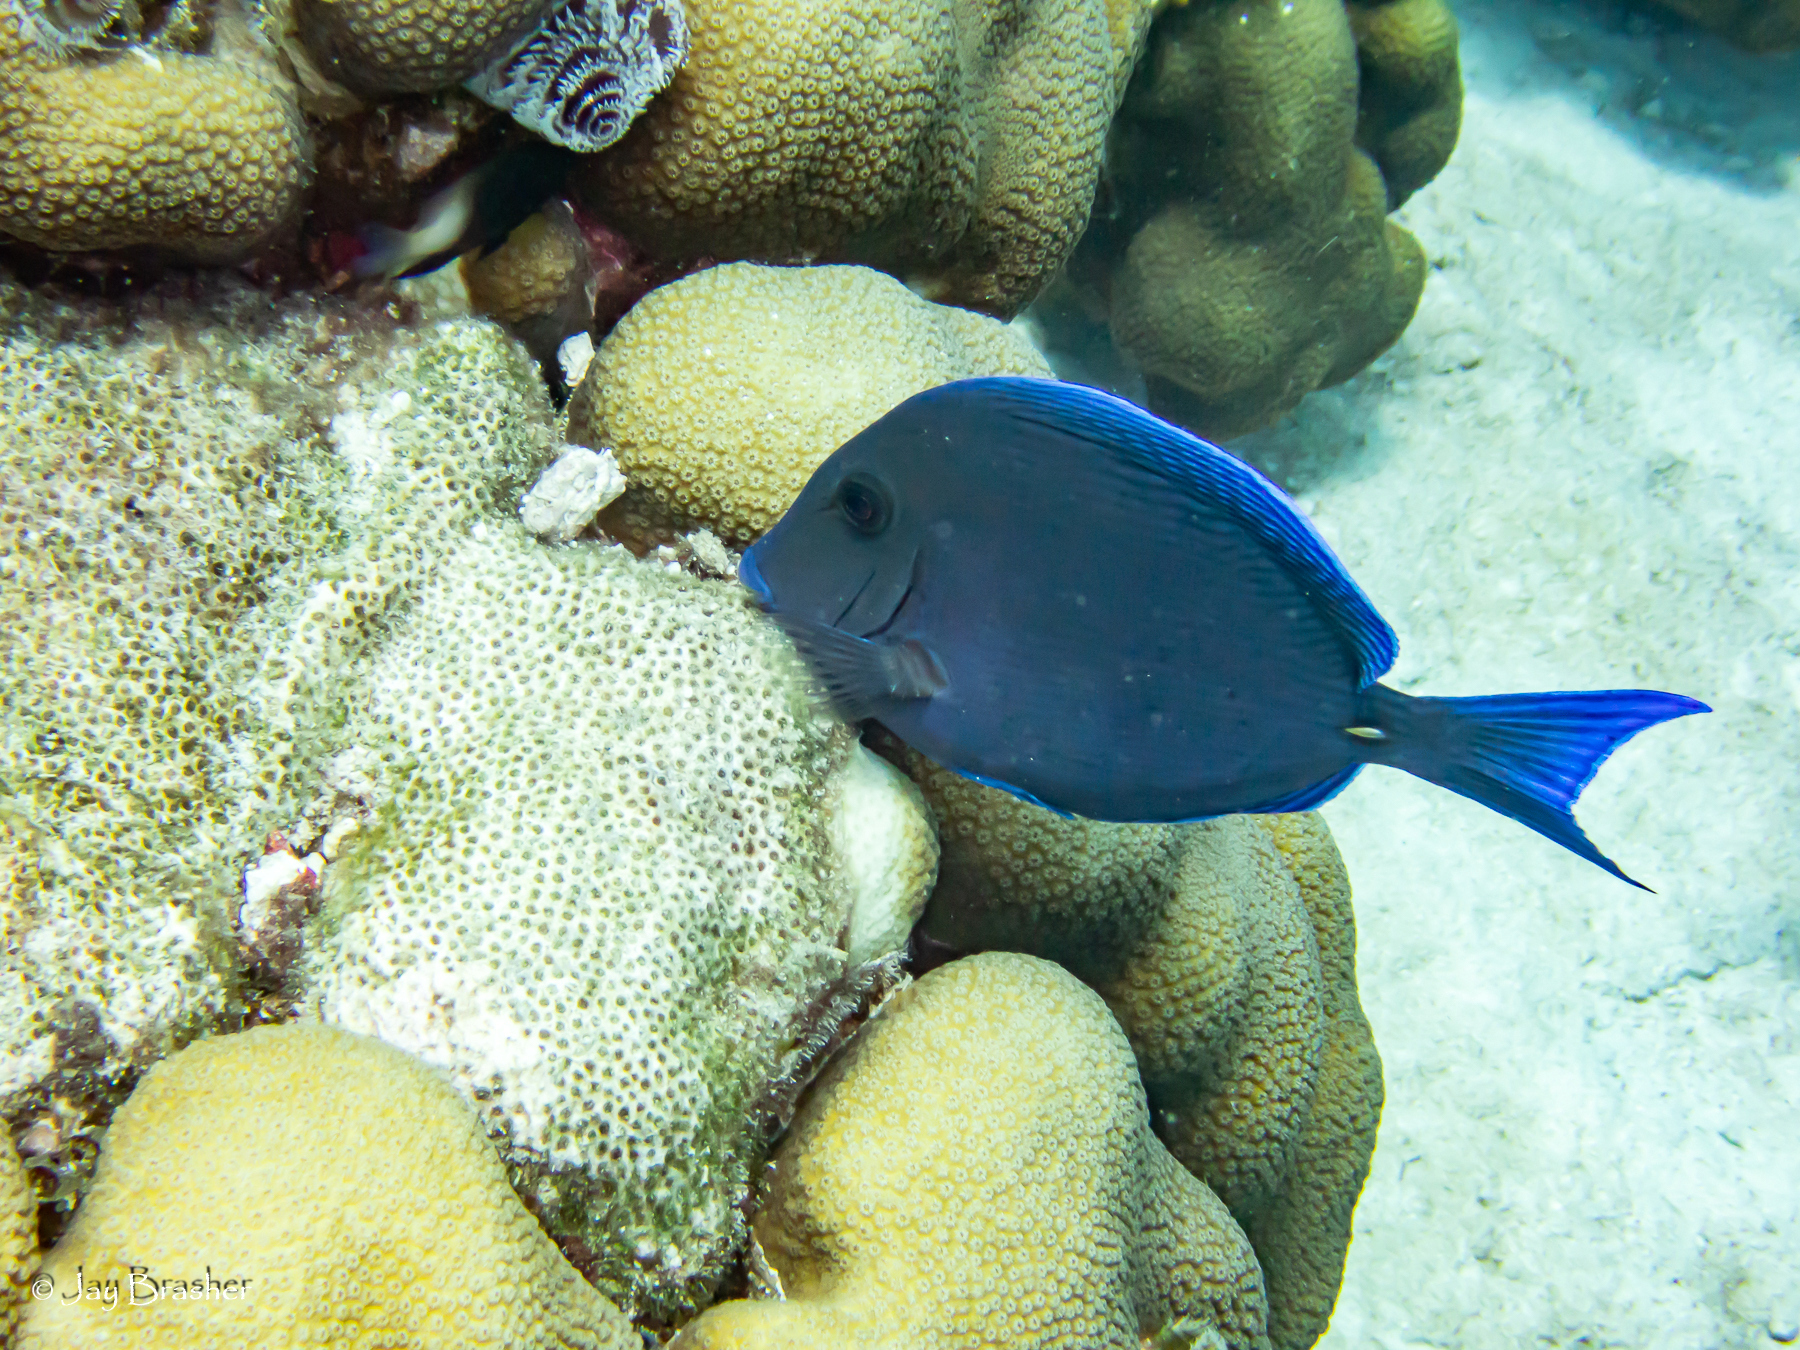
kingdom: Animalia
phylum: Annelida
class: Polychaeta
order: Sabellida
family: Serpulidae
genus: Spirobranchus
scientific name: Spirobranchus giganteus
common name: Christmas tree worm
